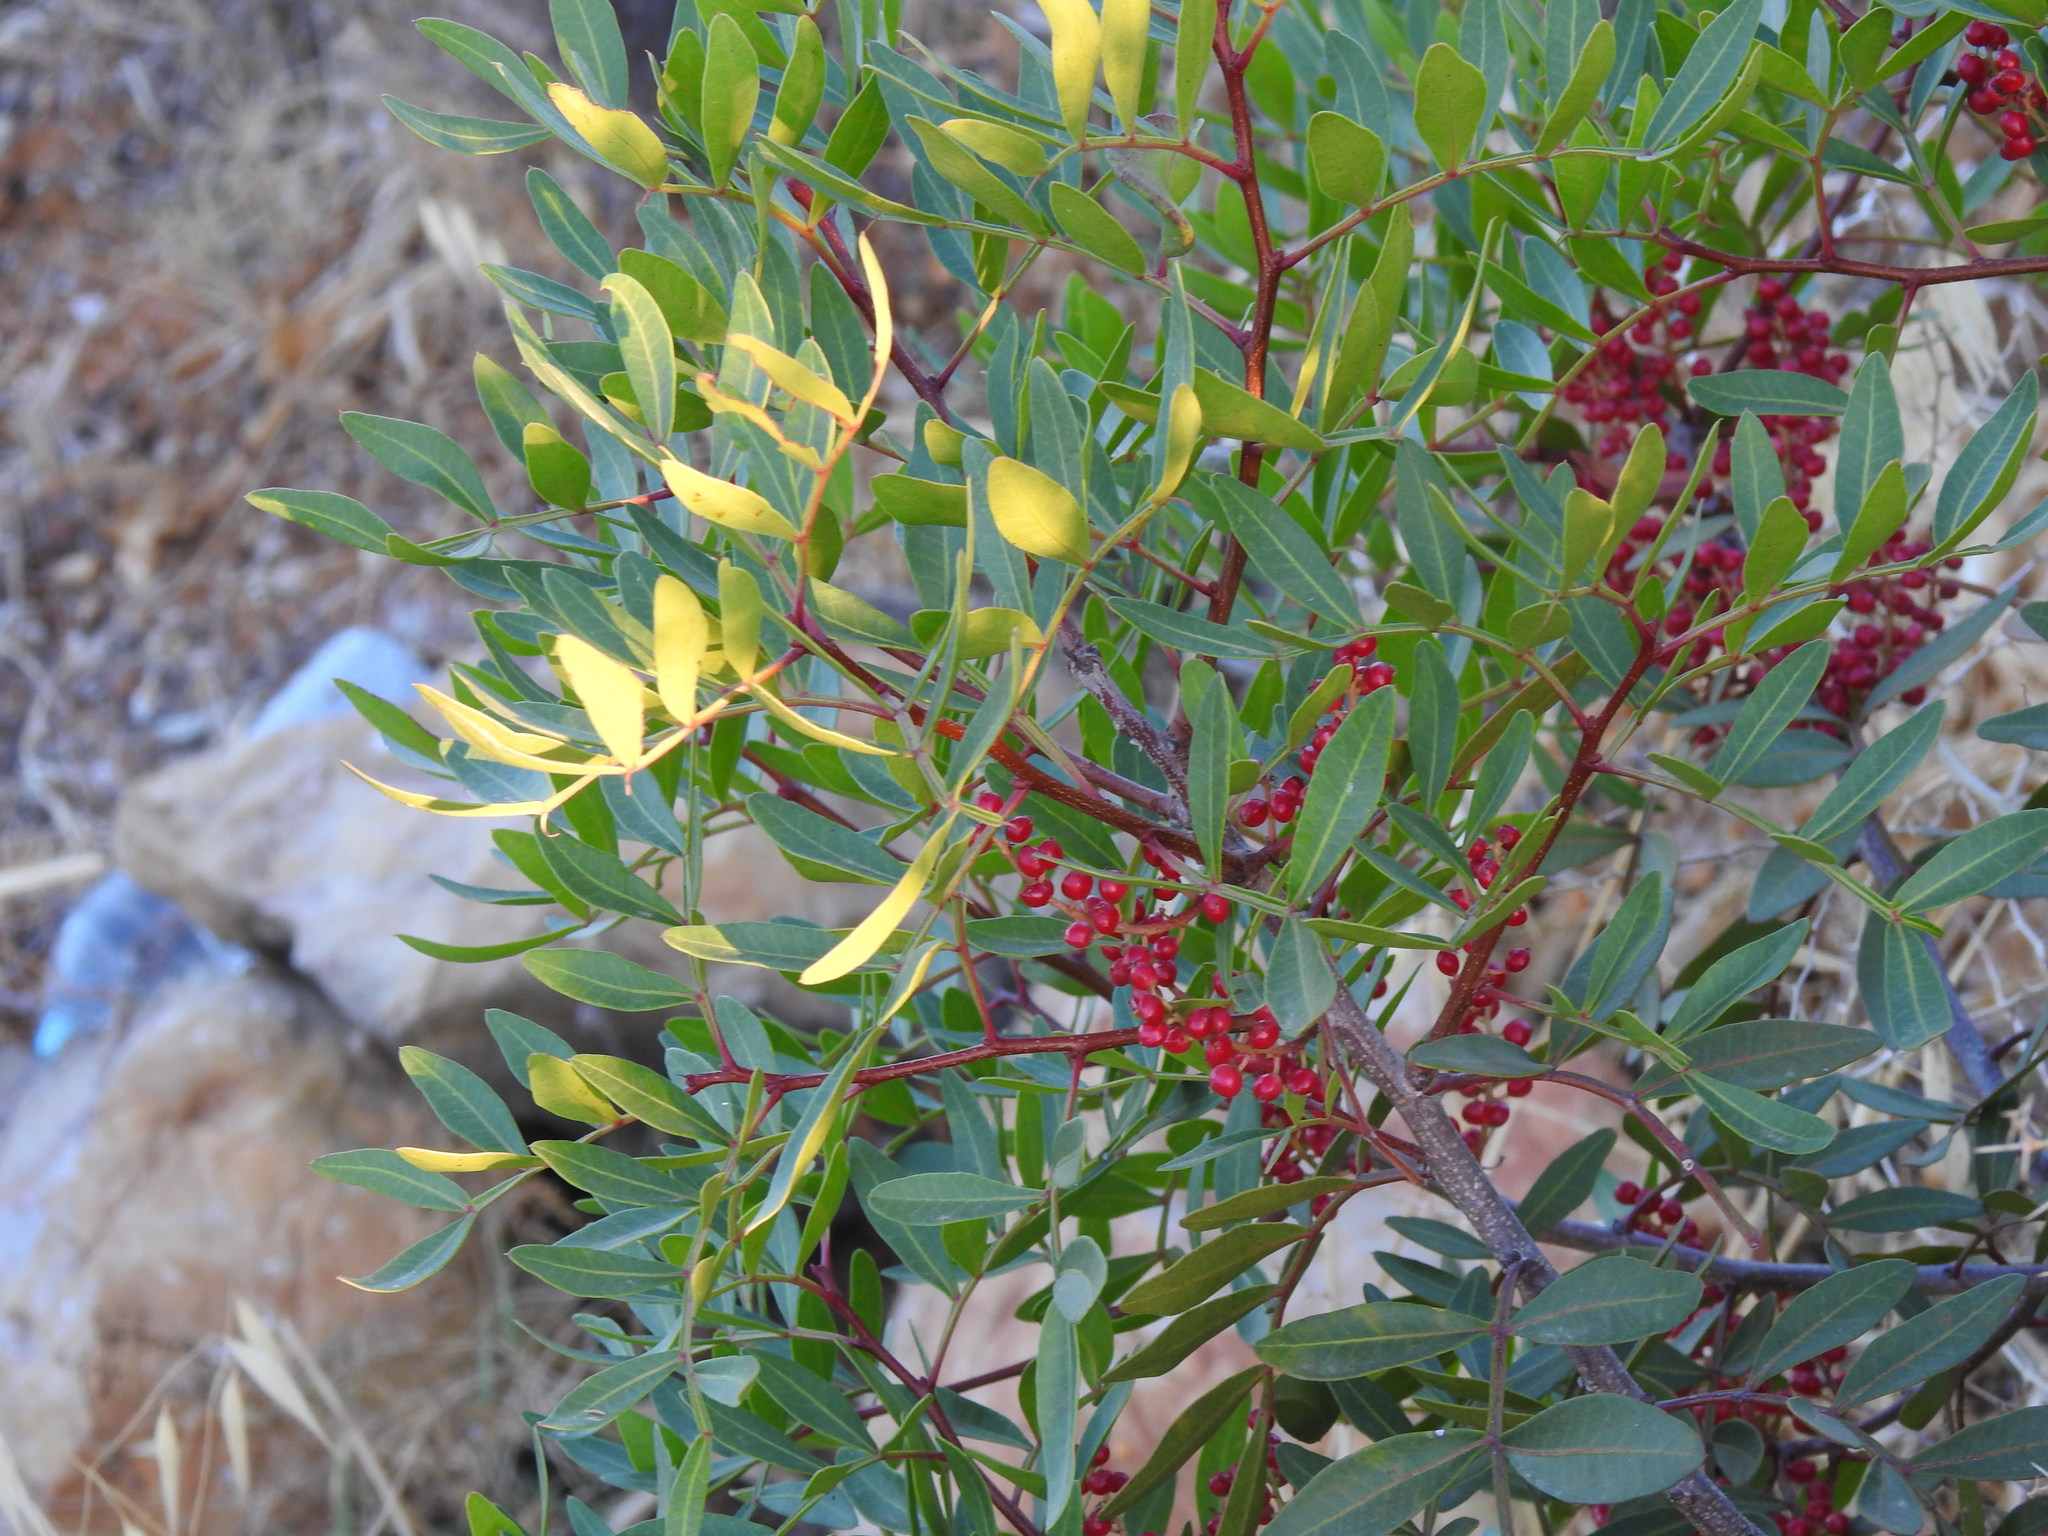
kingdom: Plantae
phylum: Tracheophyta
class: Magnoliopsida
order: Sapindales
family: Anacardiaceae
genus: Pistacia
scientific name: Pistacia lentiscus
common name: Lentisk
